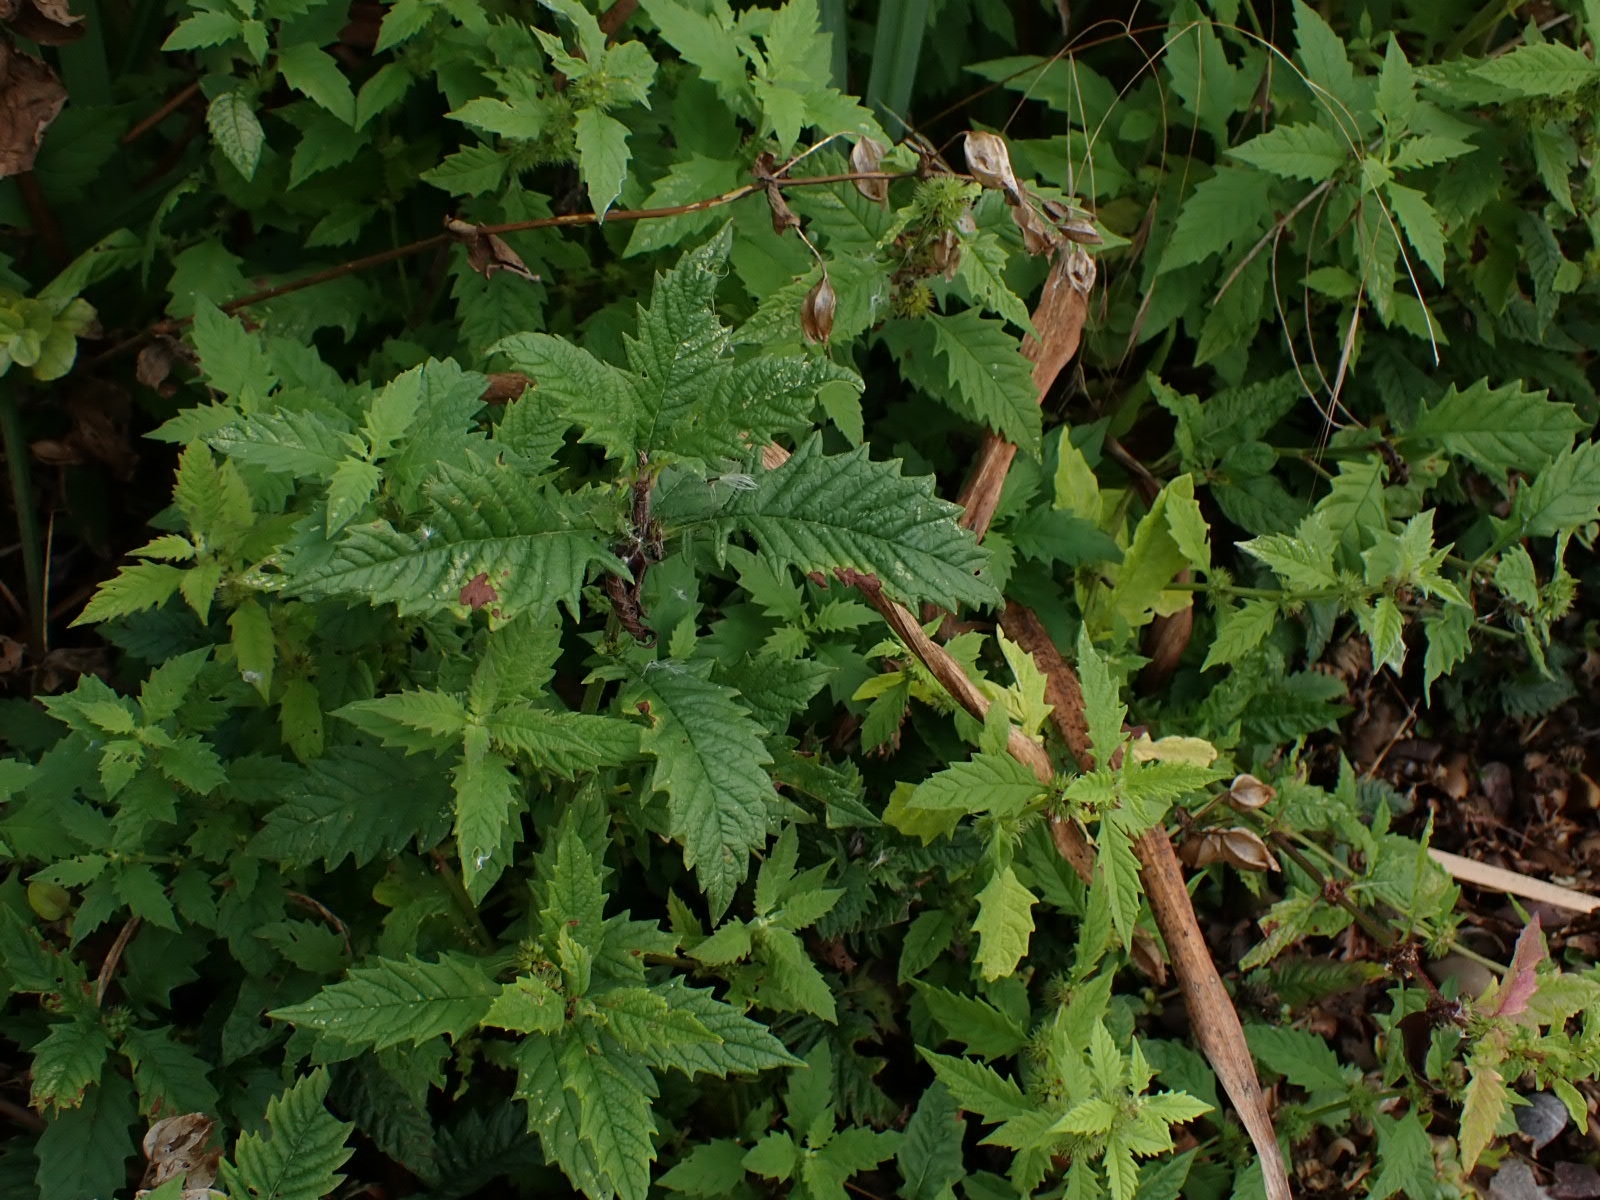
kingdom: Plantae
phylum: Tracheophyta
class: Magnoliopsida
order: Lamiales
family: Lamiaceae
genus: Lycopus
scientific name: Lycopus europaeus
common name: European bugleweed
